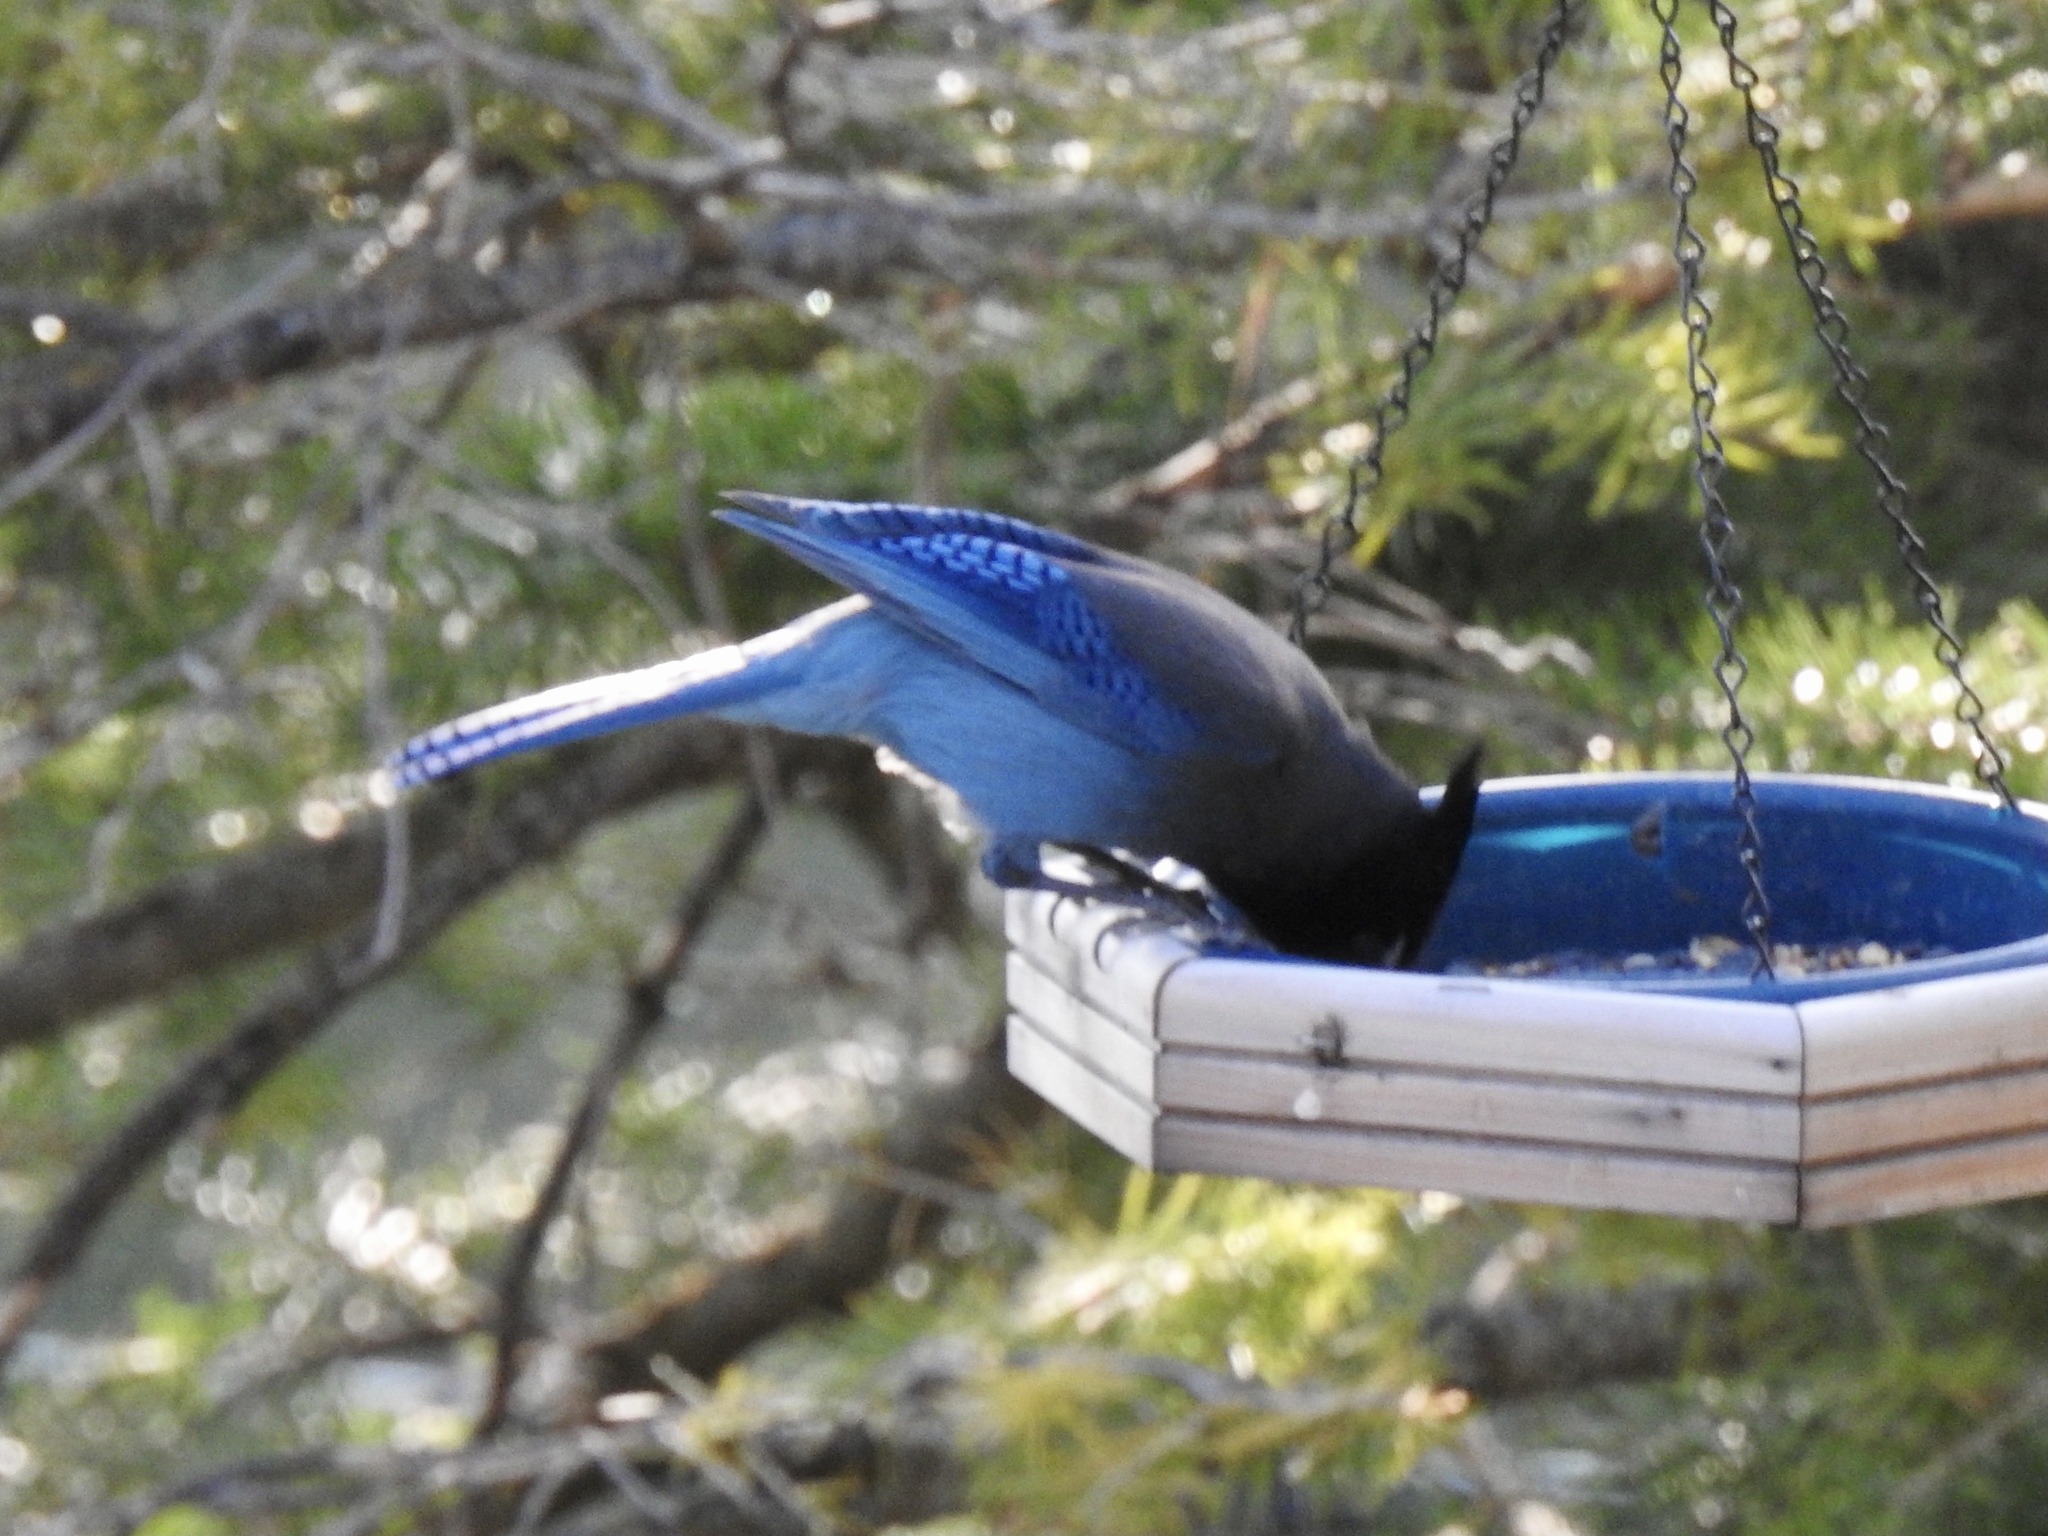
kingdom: Animalia
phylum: Chordata
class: Aves
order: Passeriformes
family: Corvidae
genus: Cyanocitta
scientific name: Cyanocitta stelleri
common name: Steller's jay
